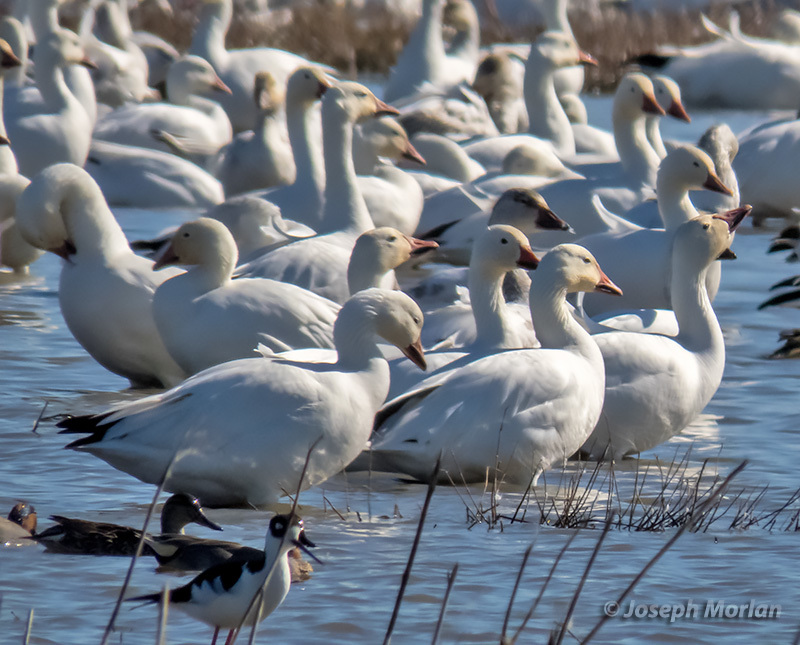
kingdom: Animalia
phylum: Chordata
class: Aves
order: Anseriformes
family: Anatidae
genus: Anser
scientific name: Anser caerulescens
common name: Snow goose
